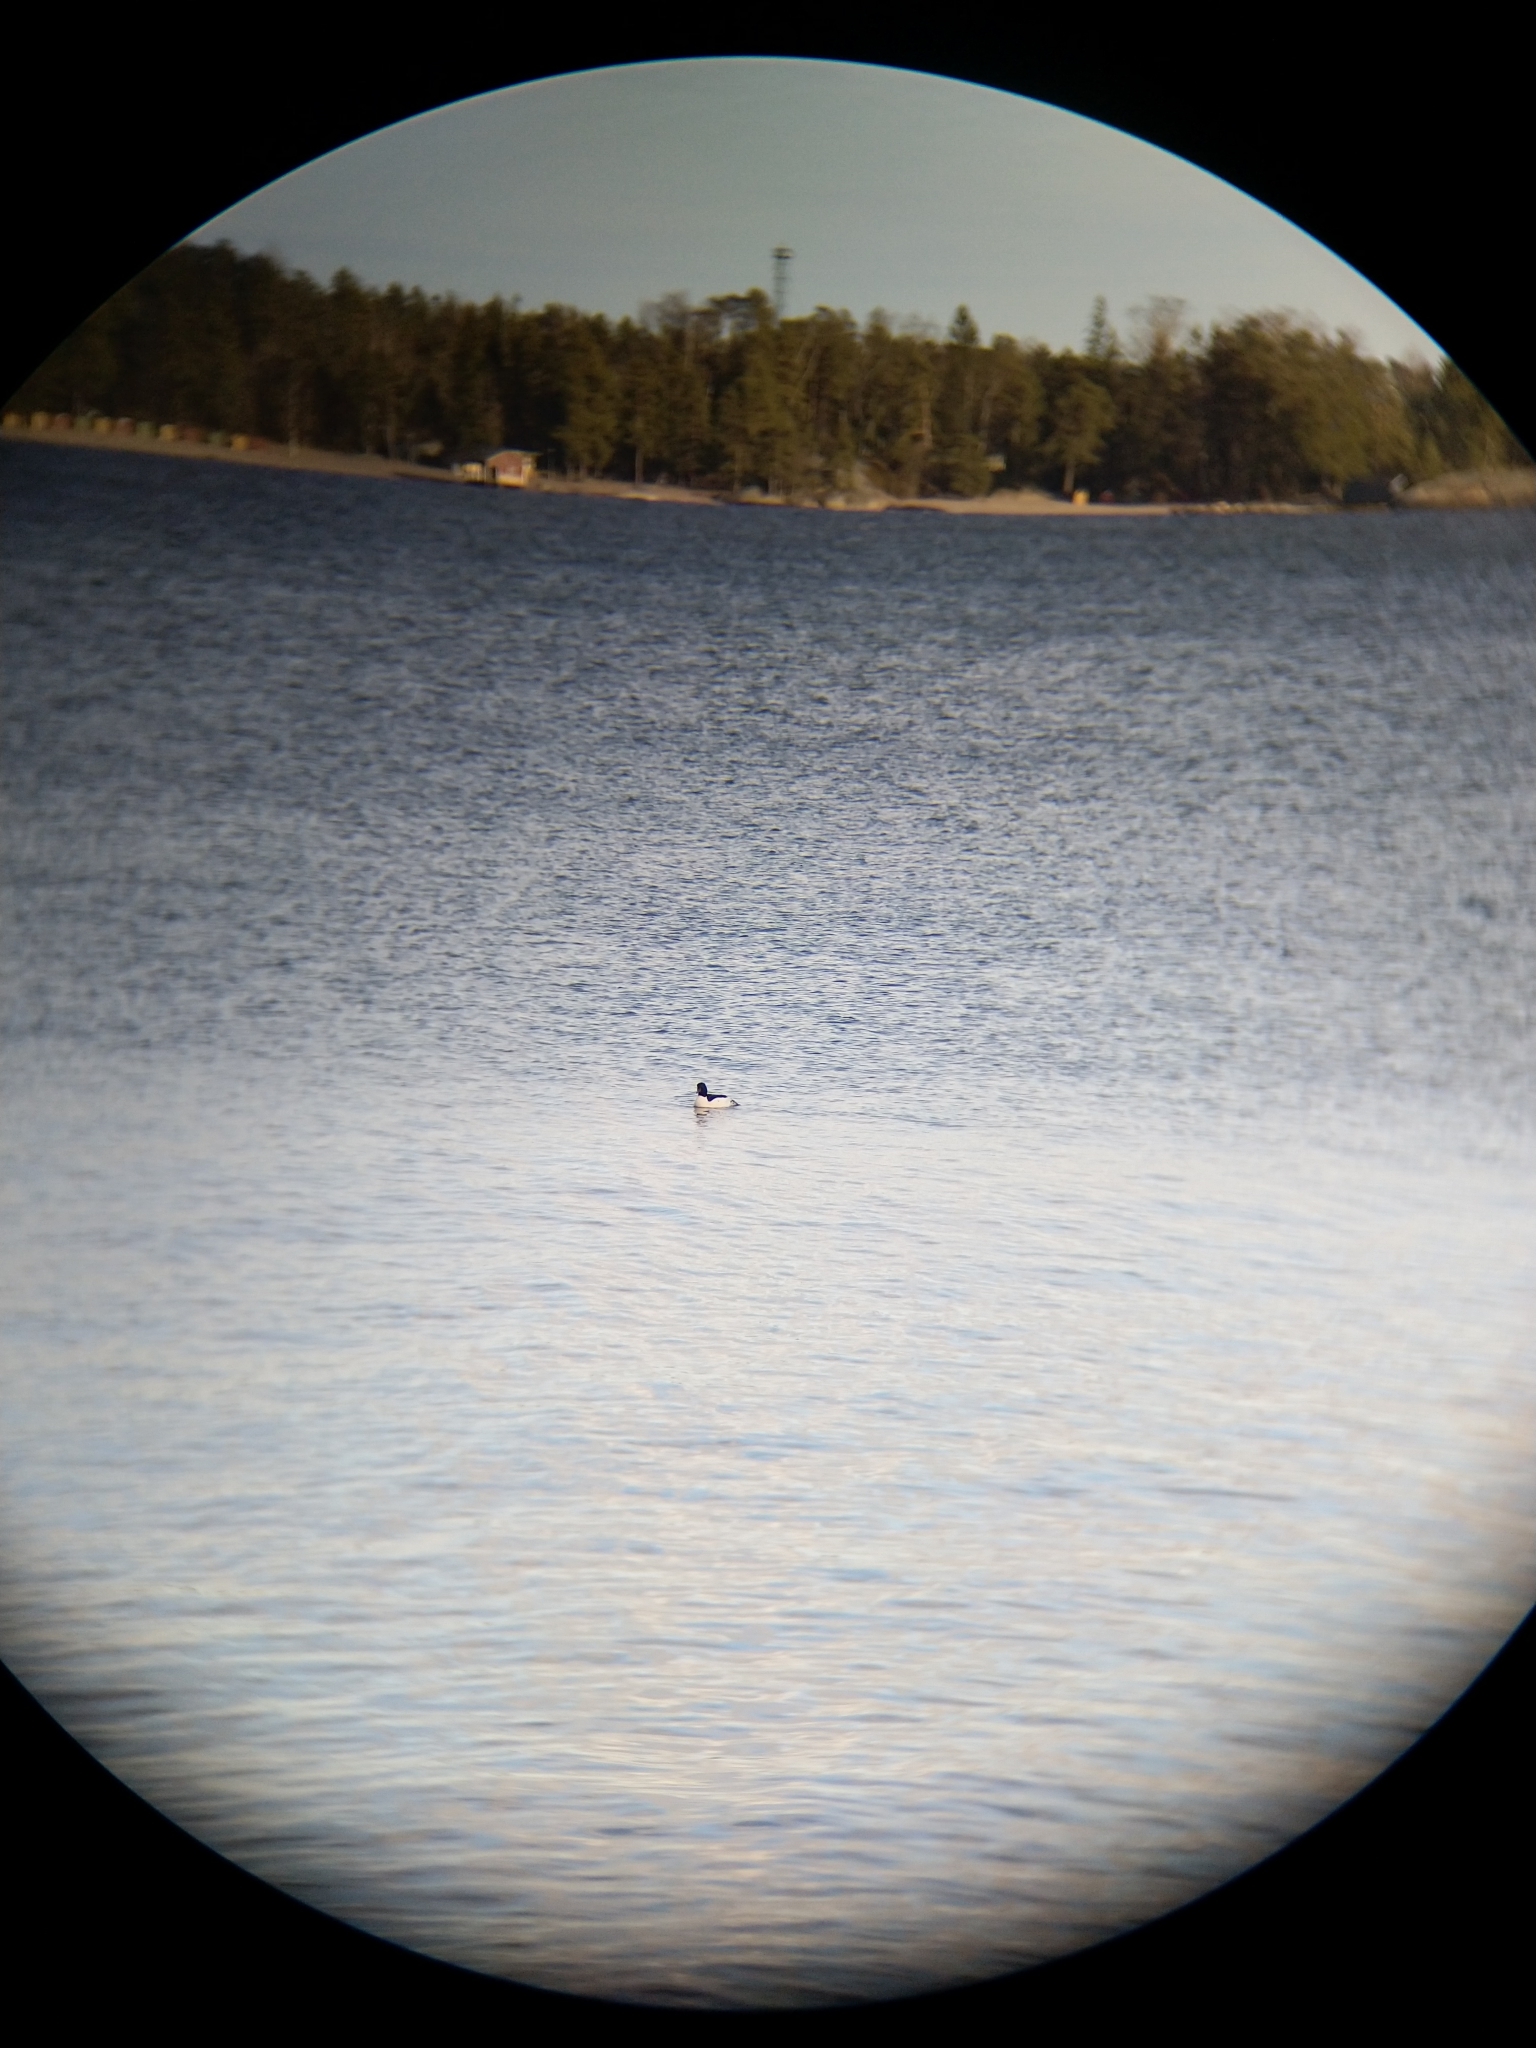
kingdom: Animalia
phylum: Chordata
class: Aves
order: Anseriformes
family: Anatidae
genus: Mergus
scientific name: Mergus merganser
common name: Common merganser
